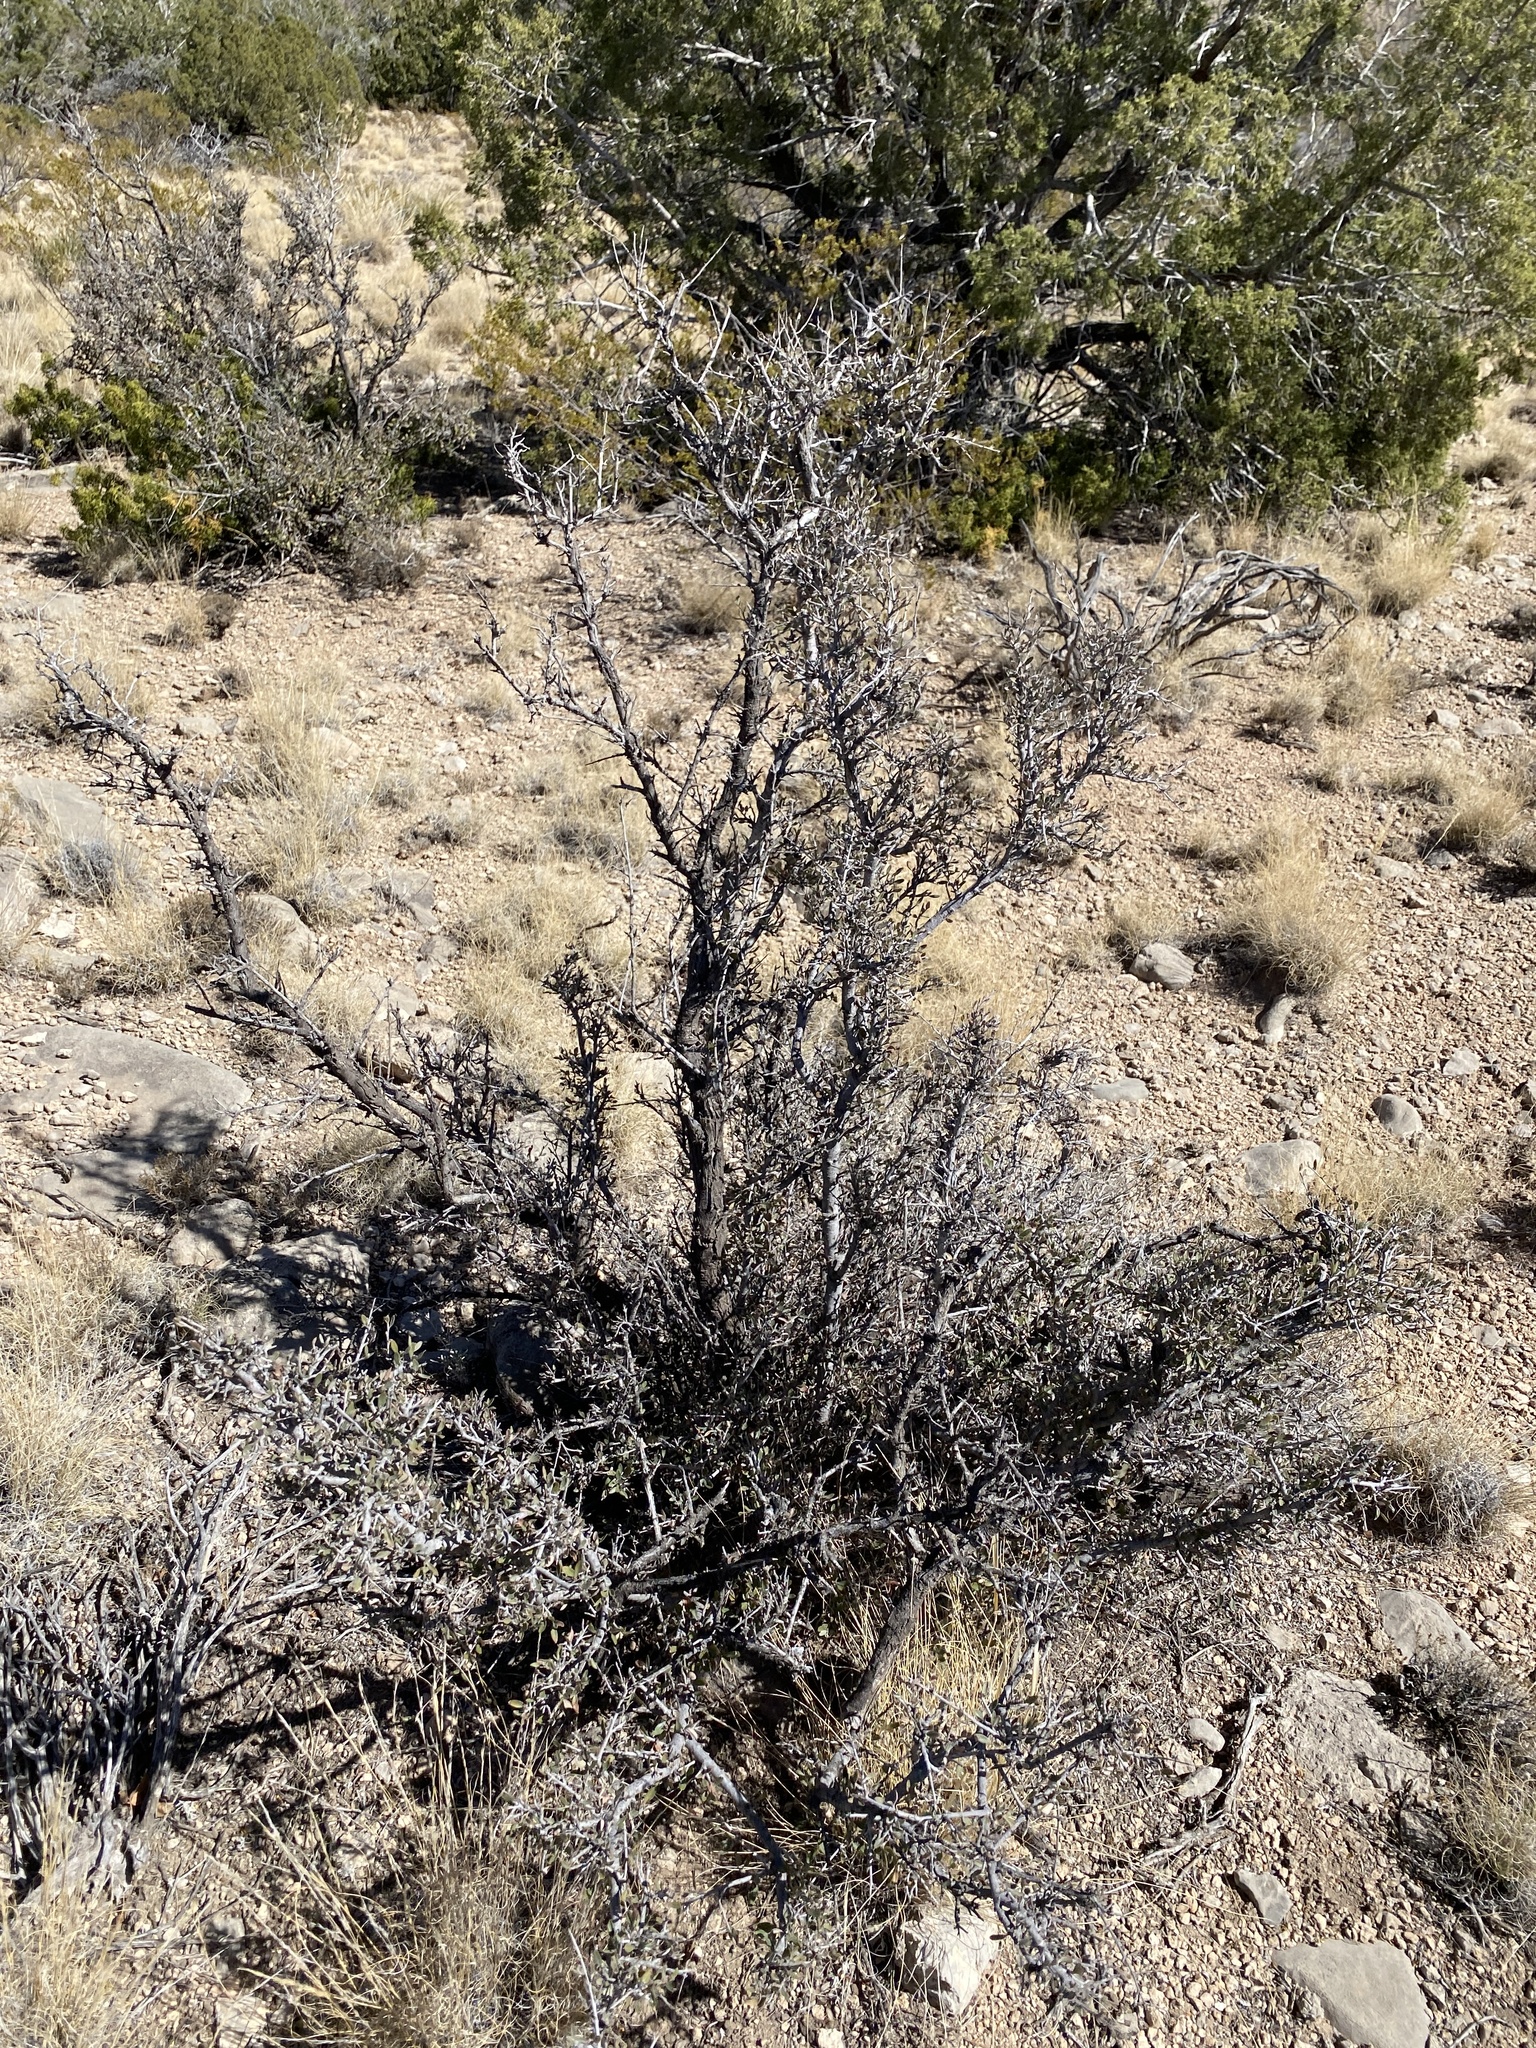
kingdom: Plantae
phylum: Tracheophyta
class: Magnoliopsida
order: Rosales
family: Rosaceae
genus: Cercocarpus
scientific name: Cercocarpus breviflorus
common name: Wright's mountain-mahogany
